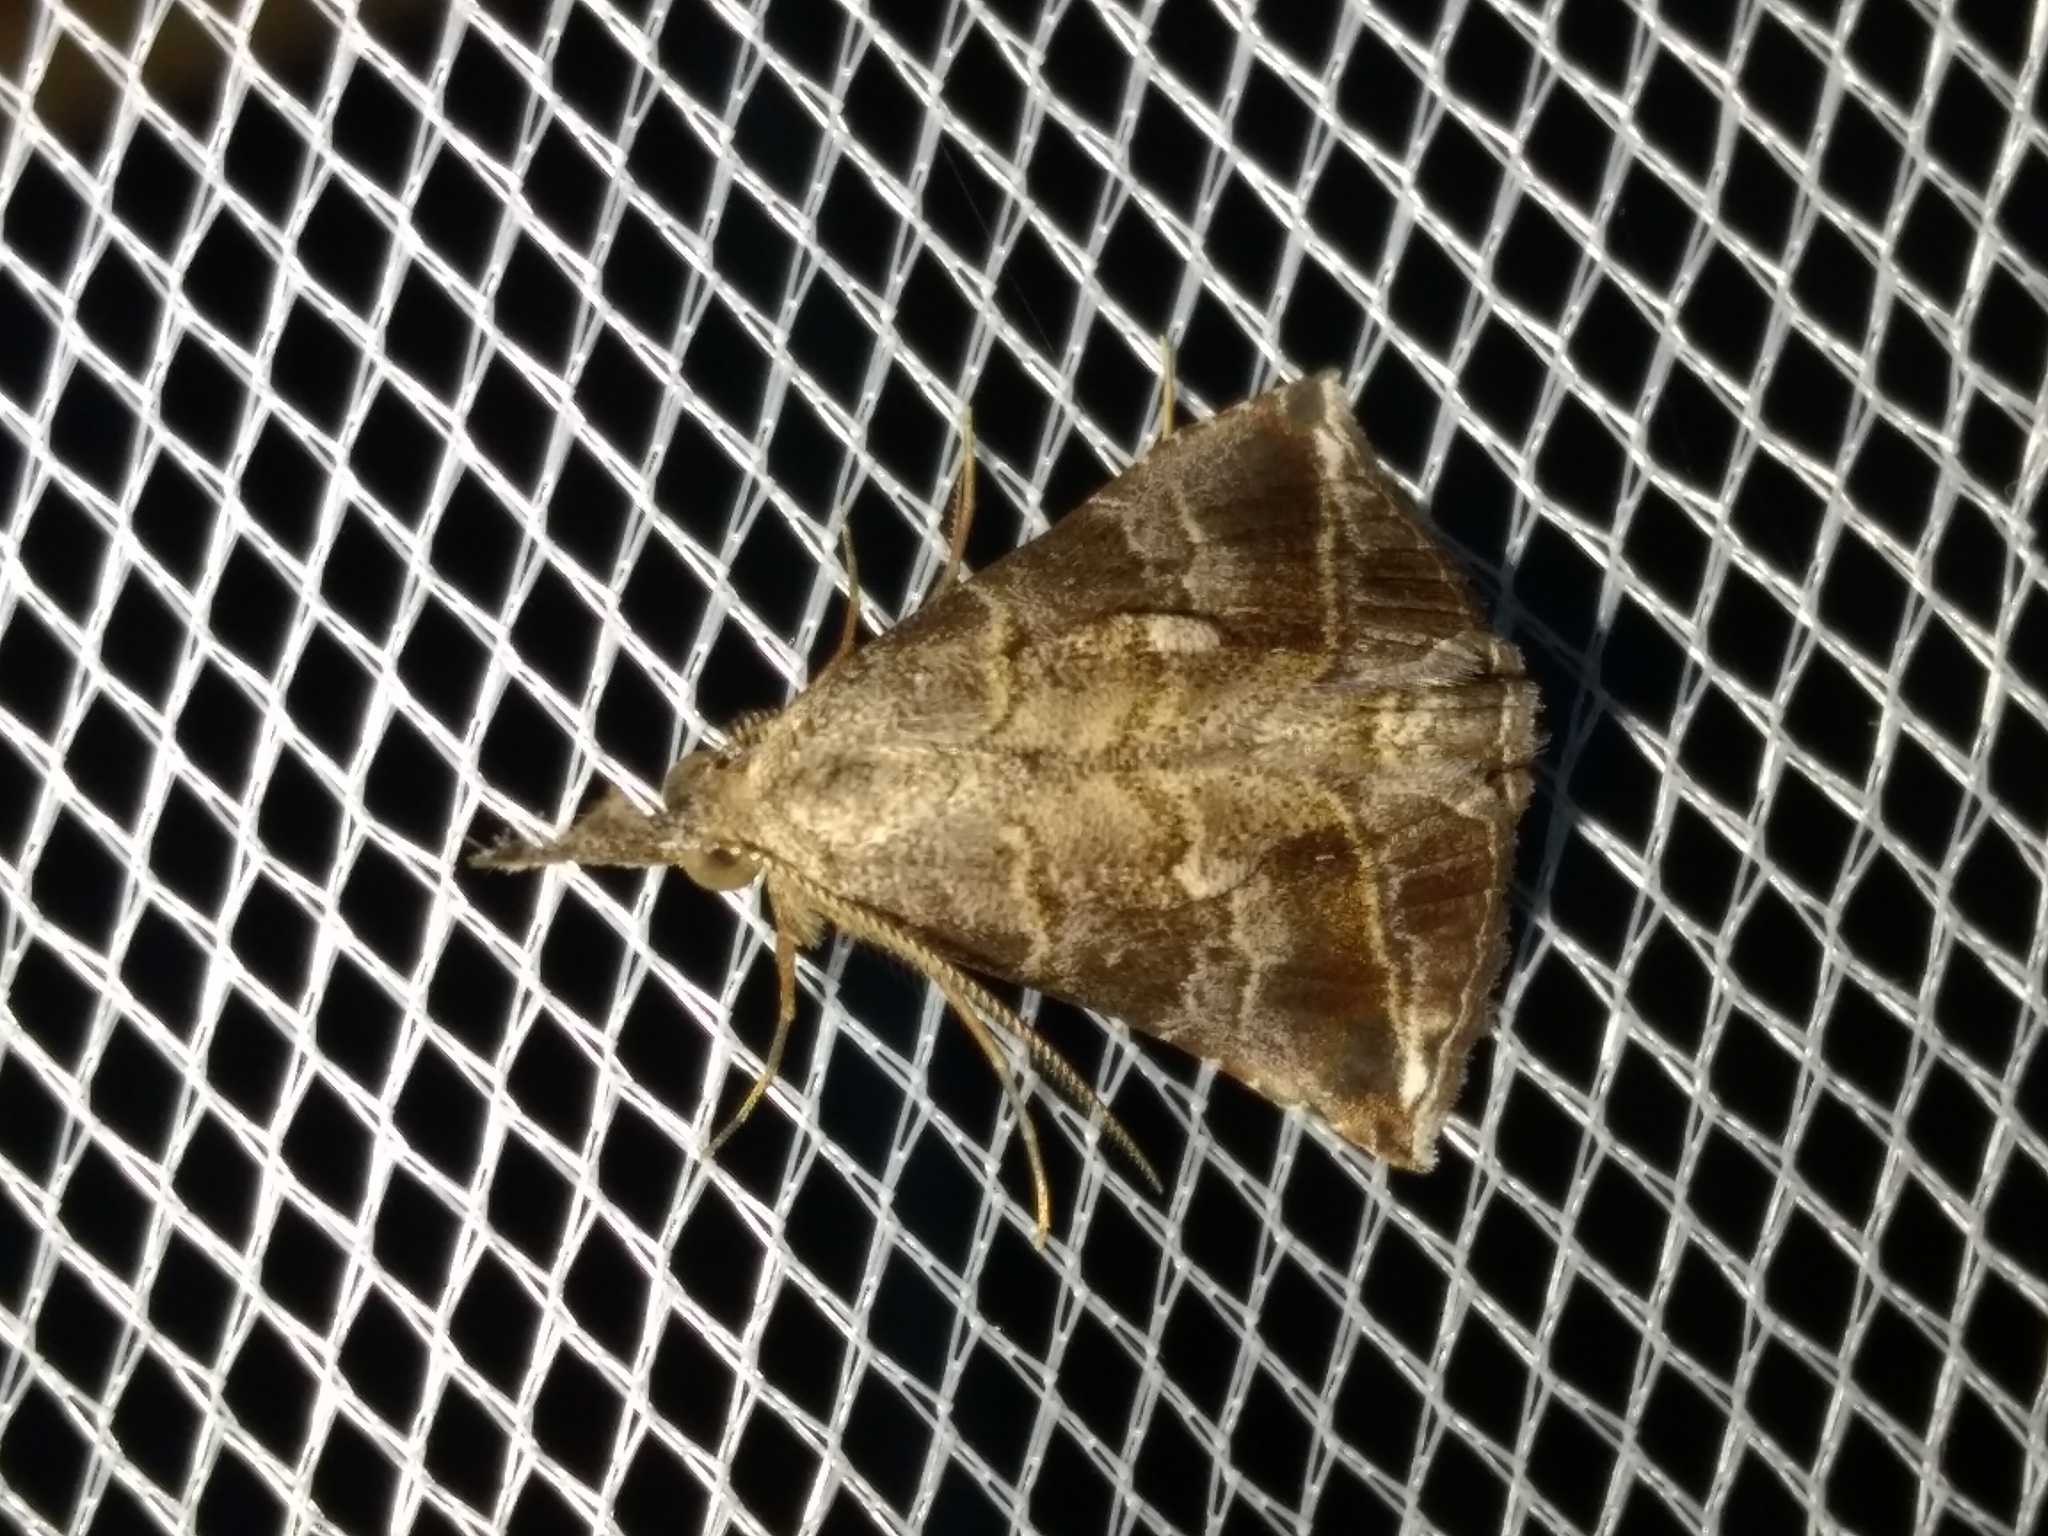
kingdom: Animalia
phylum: Arthropoda
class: Insecta
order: Lepidoptera
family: Erebidae
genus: Britha
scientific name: Britha biguttata
